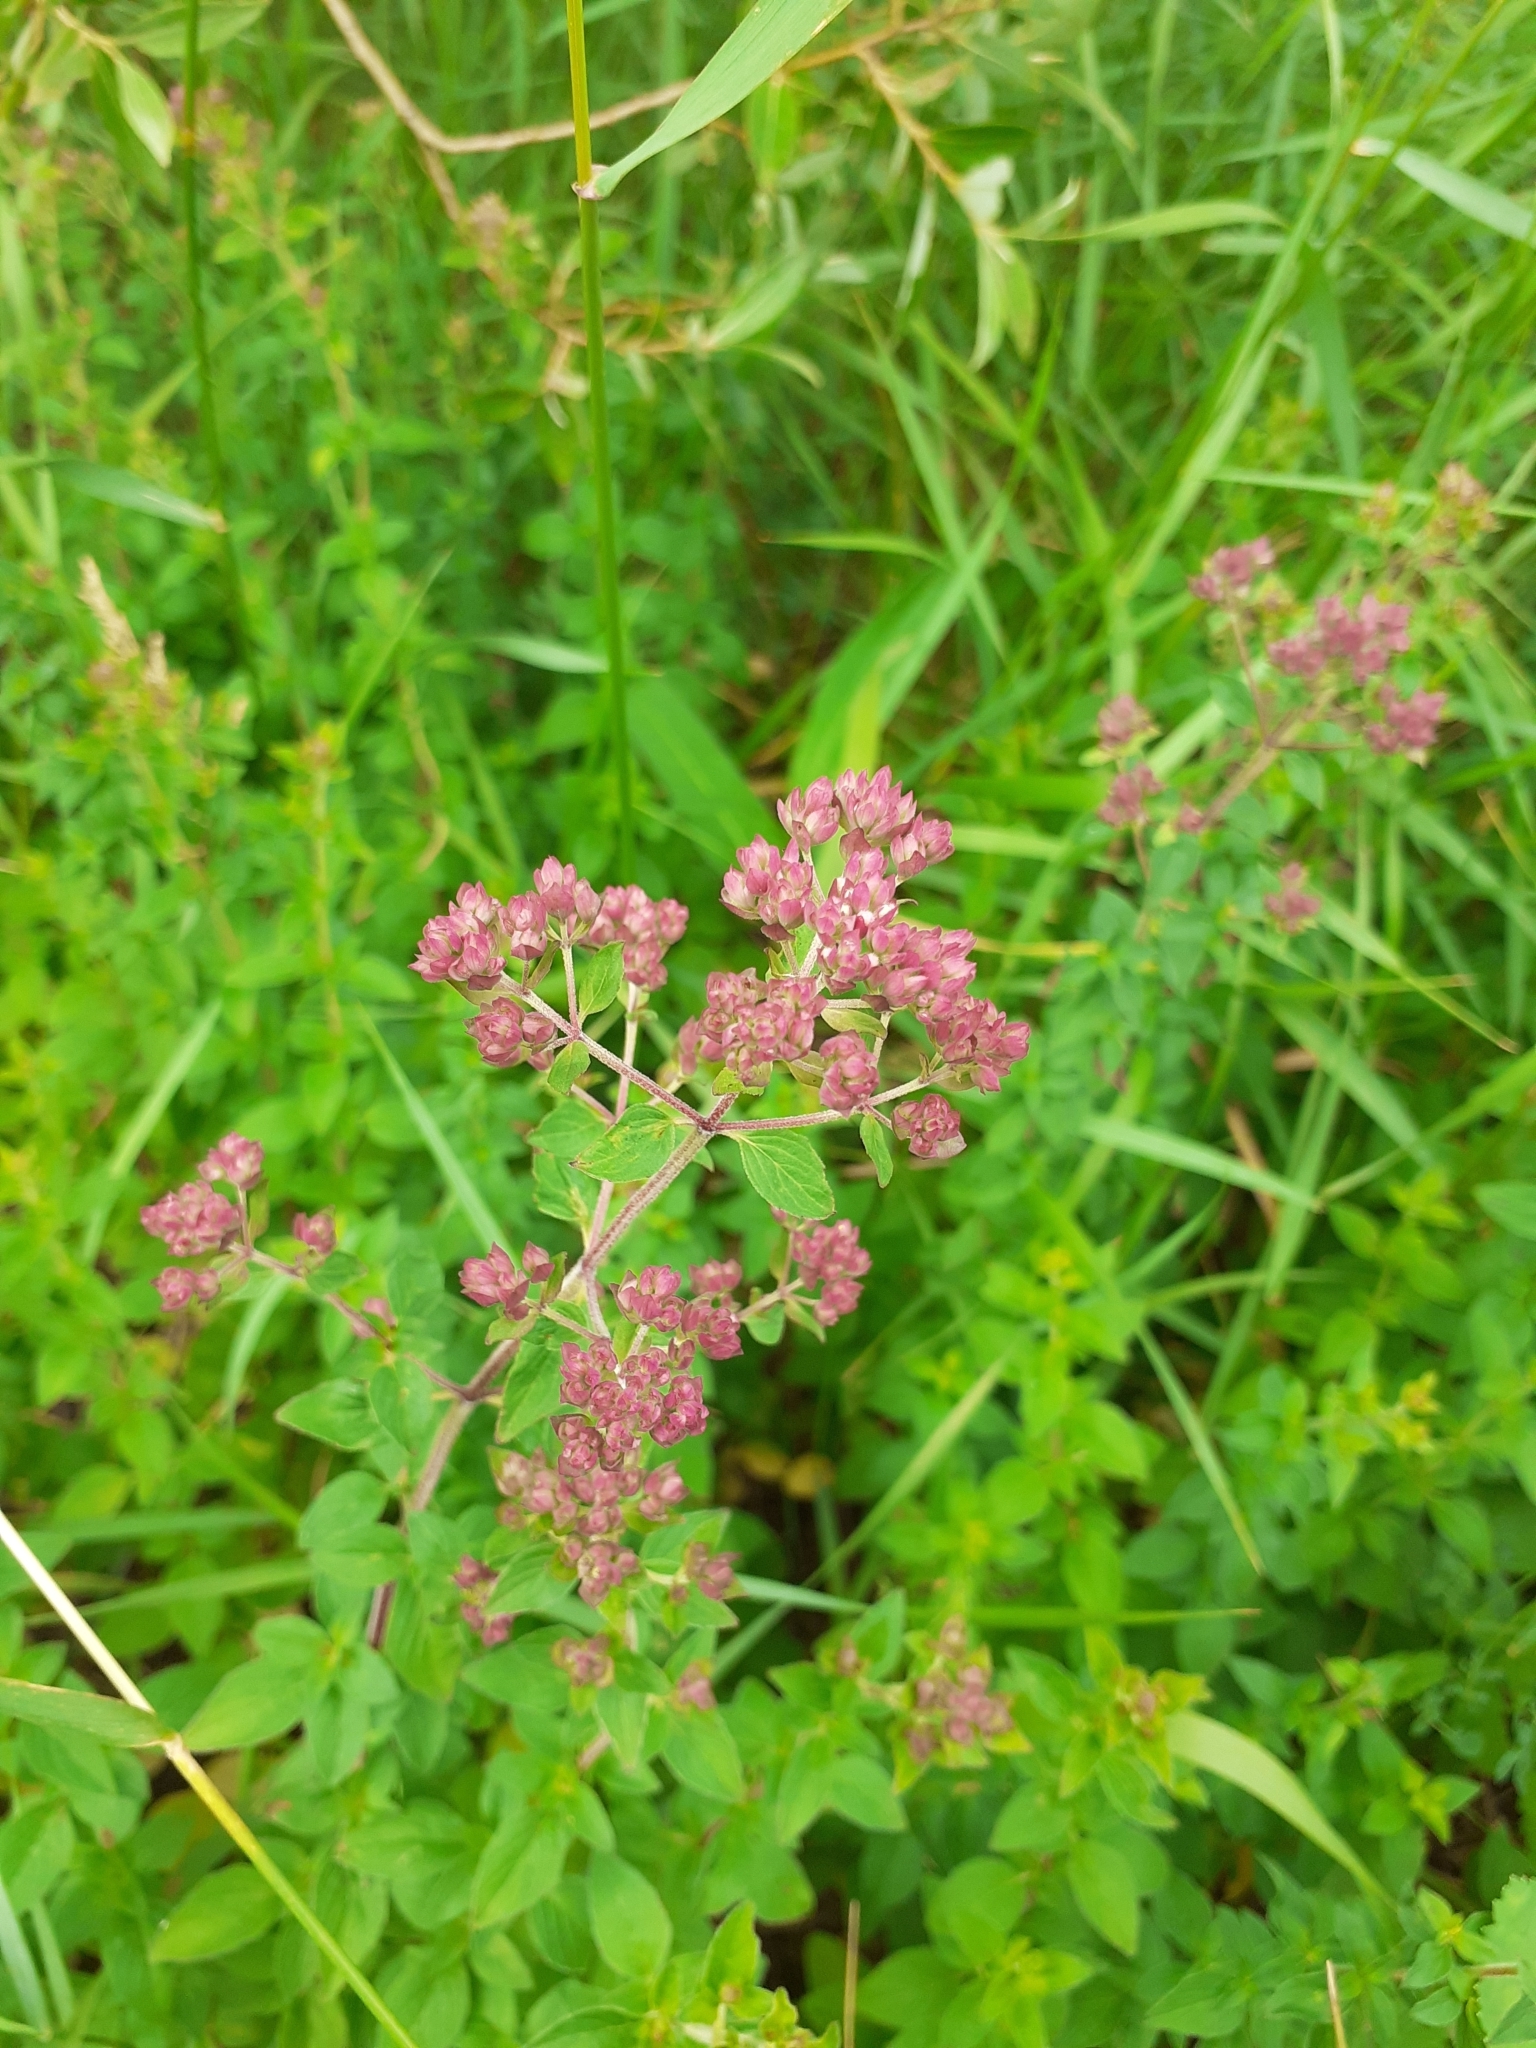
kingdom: Plantae
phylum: Tracheophyta
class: Magnoliopsida
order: Lamiales
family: Lamiaceae
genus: Origanum
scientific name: Origanum vulgare
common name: Wild marjoram
